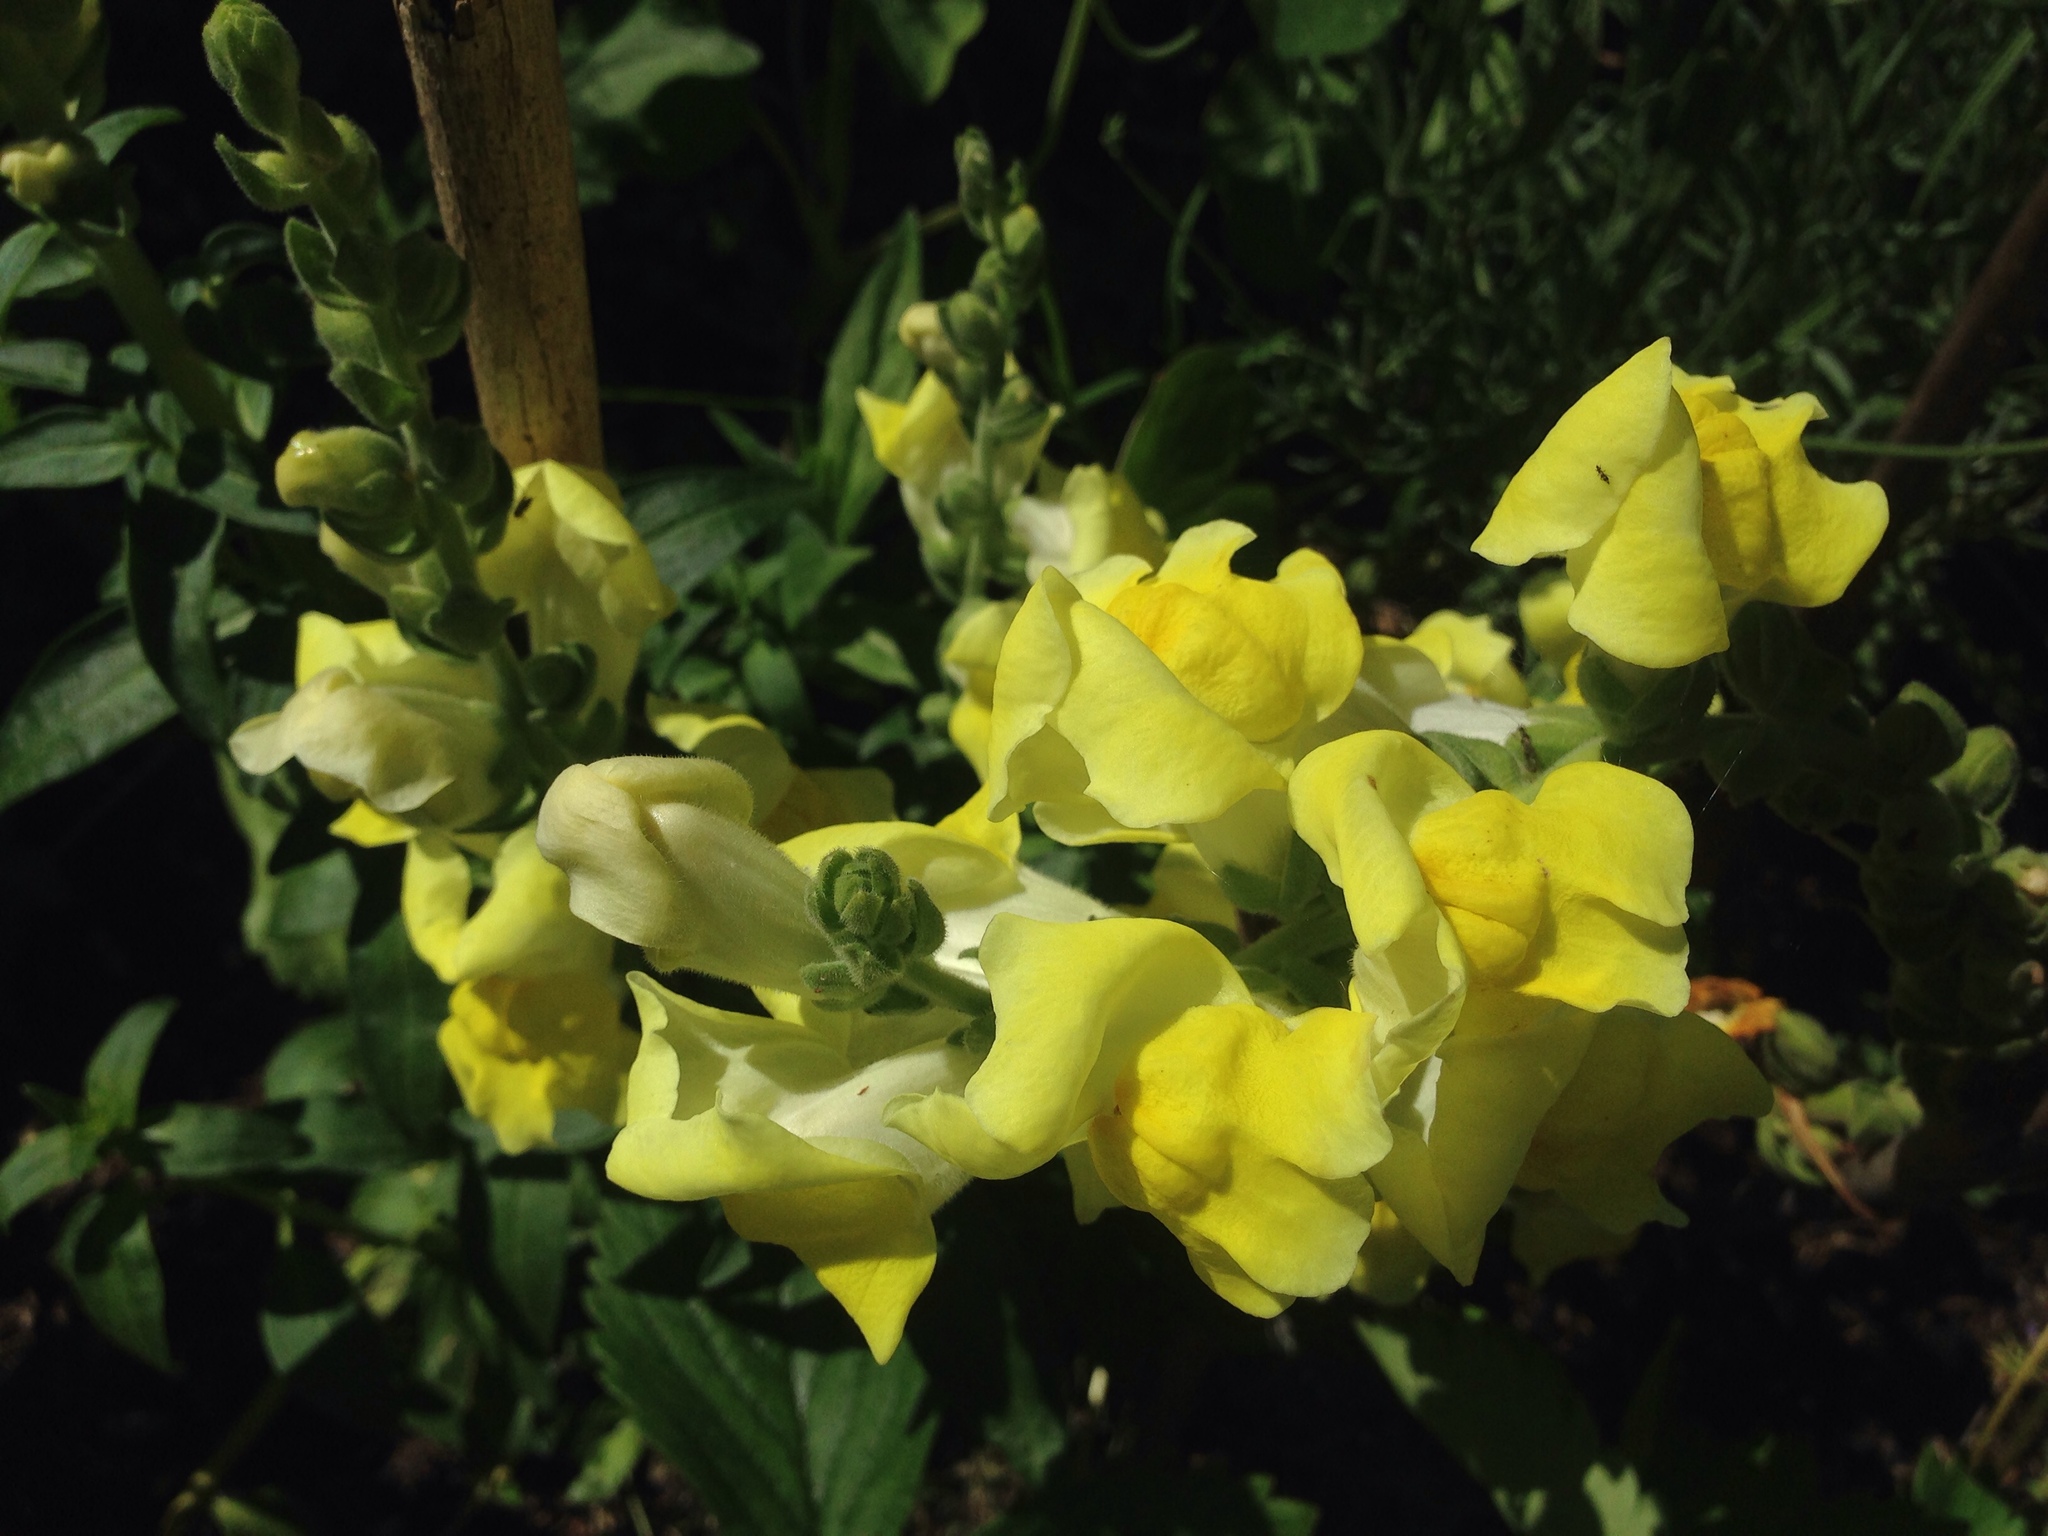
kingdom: Plantae
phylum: Tracheophyta
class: Magnoliopsida
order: Lamiales
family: Plantaginaceae
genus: Antirrhinum
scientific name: Antirrhinum majus
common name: Snapdragon
